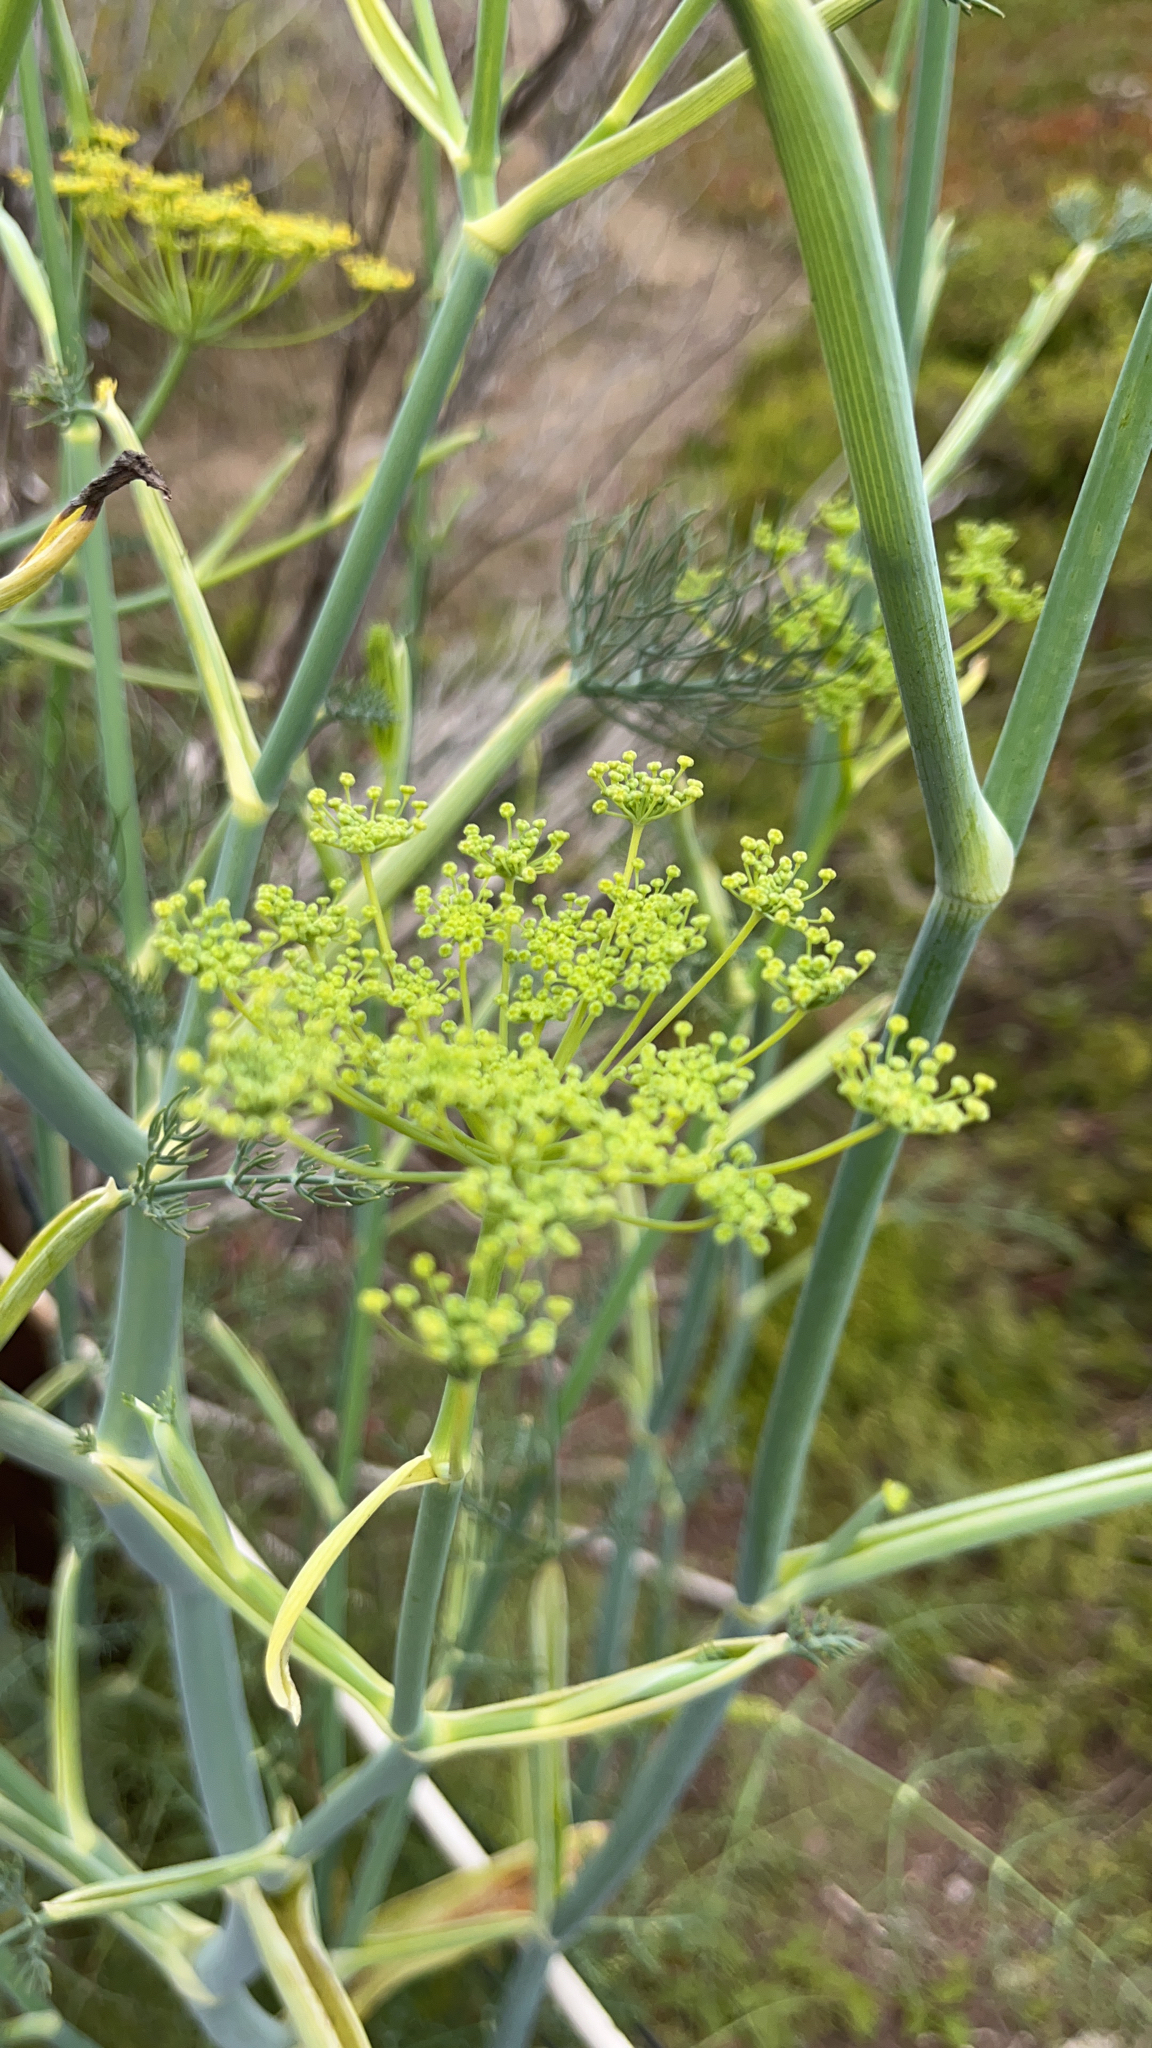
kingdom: Plantae
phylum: Tracheophyta
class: Magnoliopsida
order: Apiales
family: Apiaceae
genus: Foeniculum
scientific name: Foeniculum vulgare
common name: Fennel
